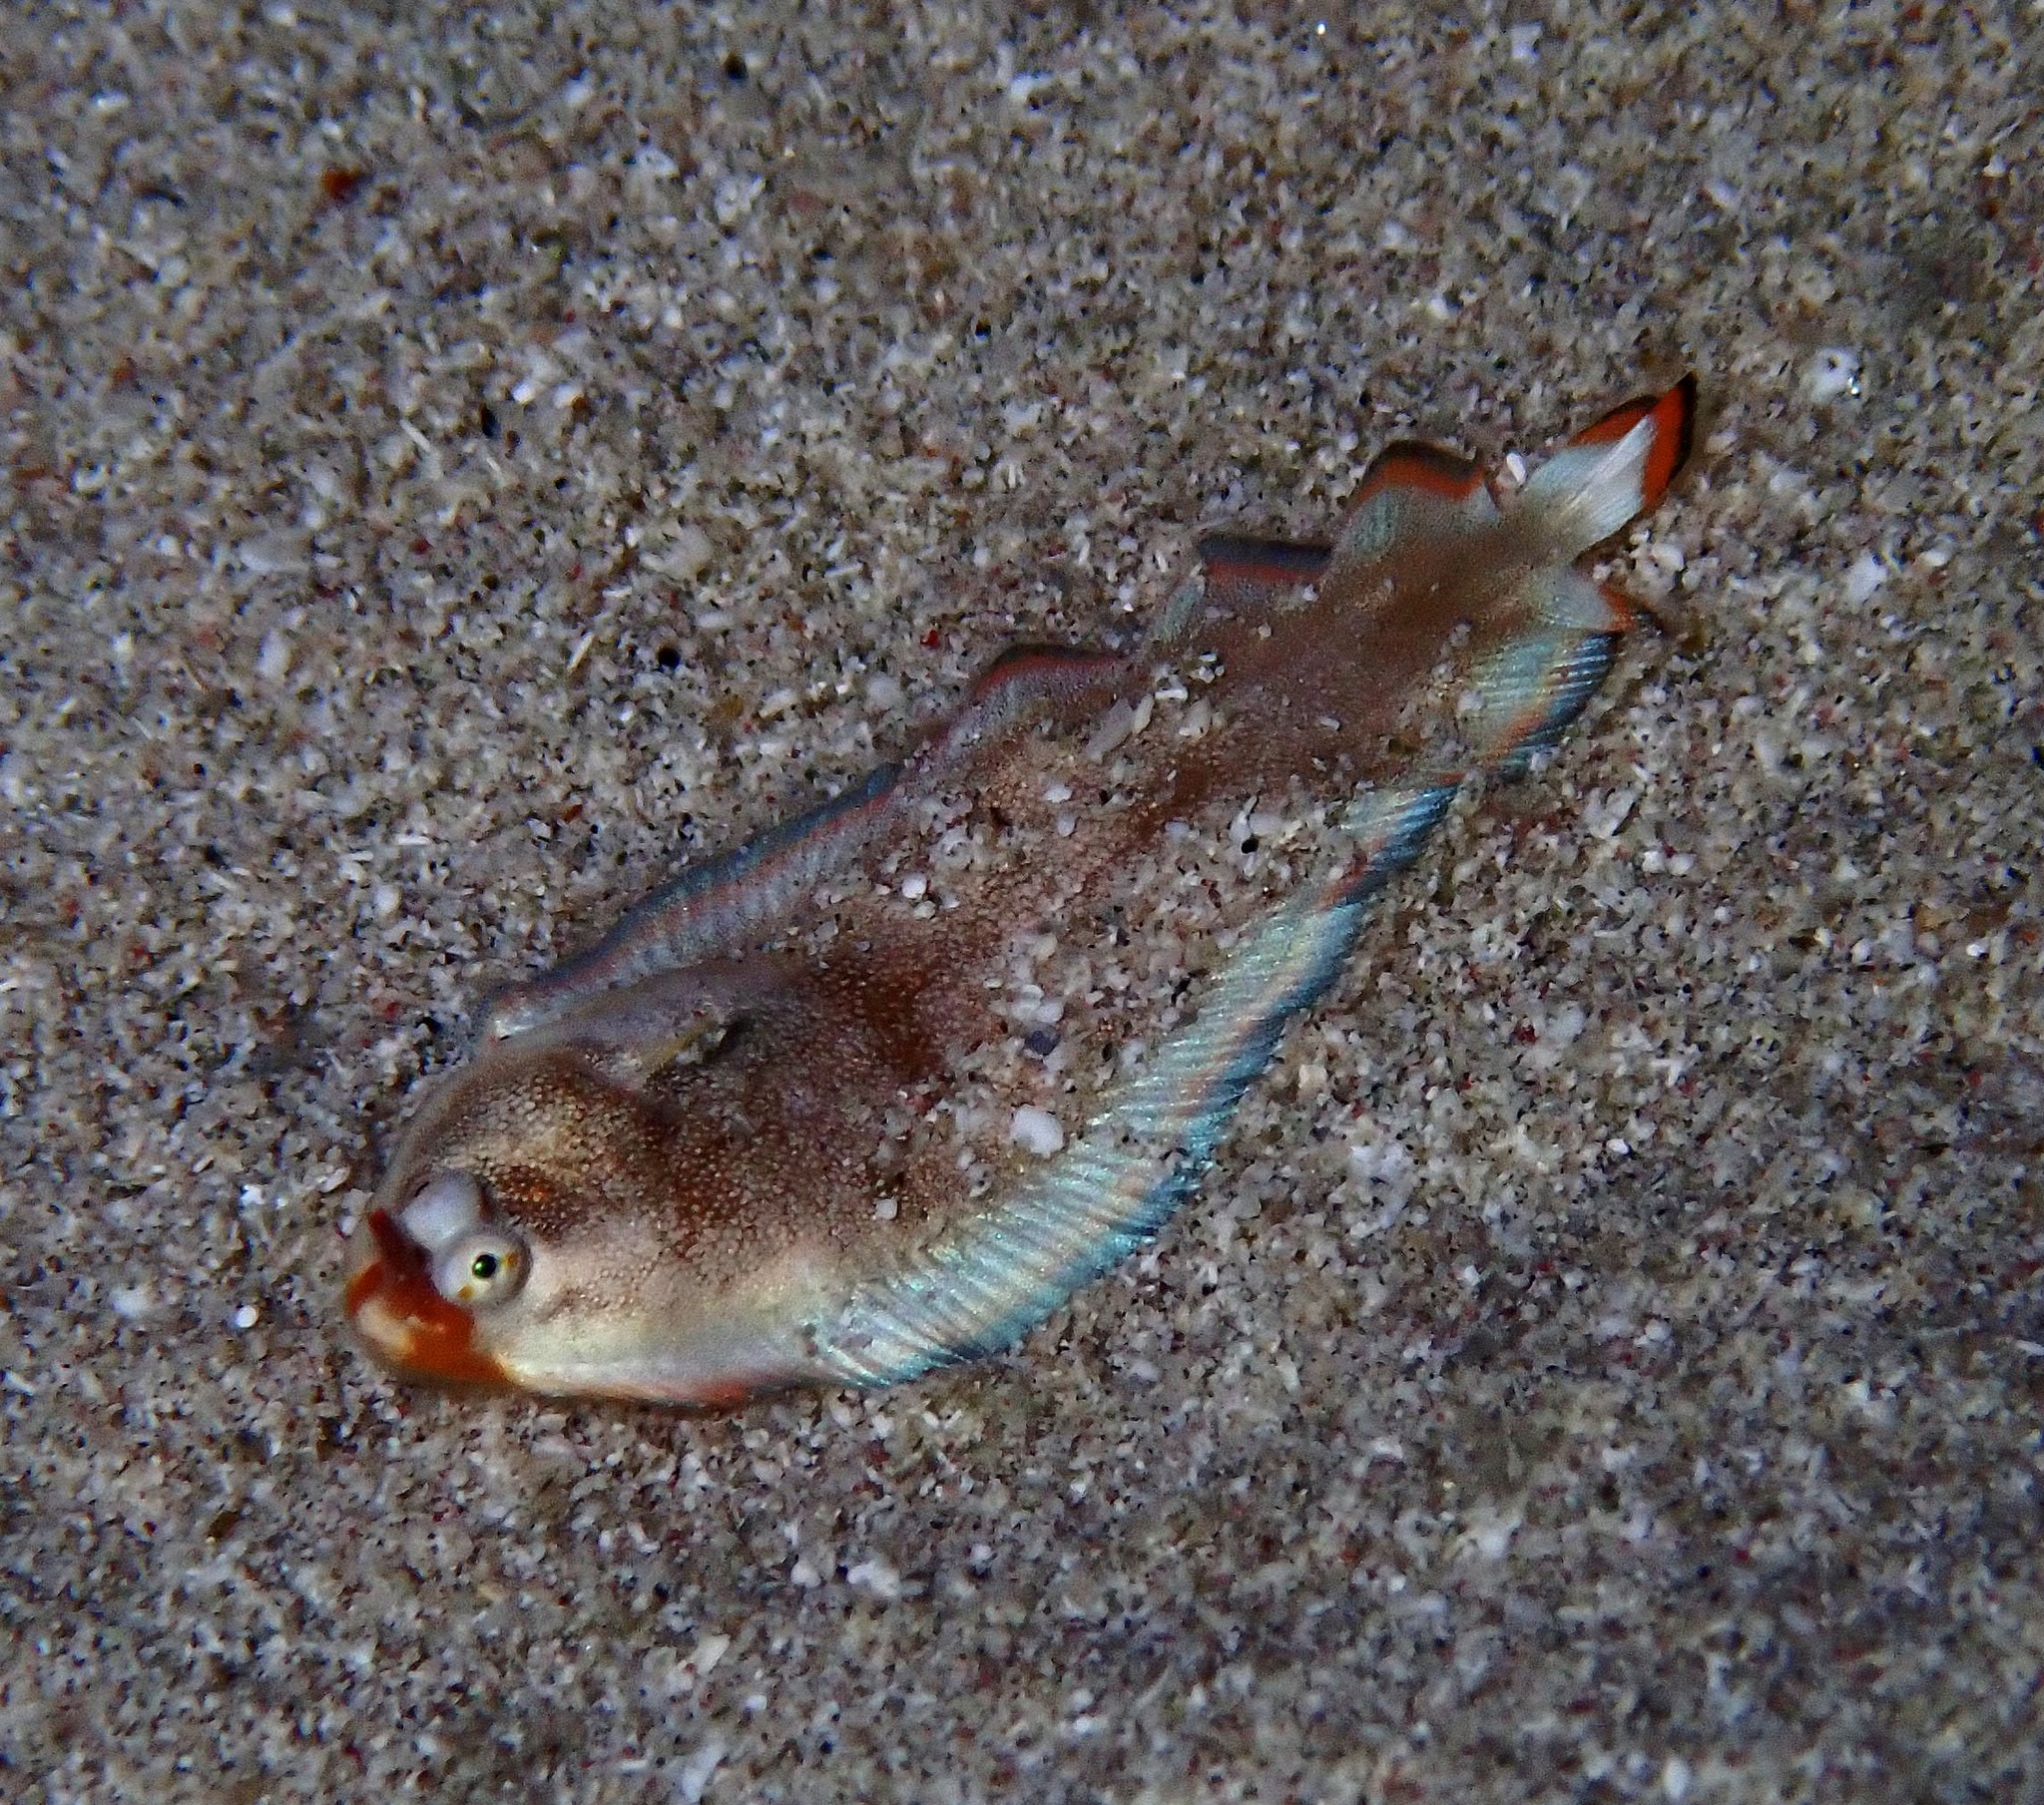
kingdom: Animalia
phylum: Chordata
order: Pleuronectiformes
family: Soleidae
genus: Soleichthys
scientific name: Soleichthys dori
